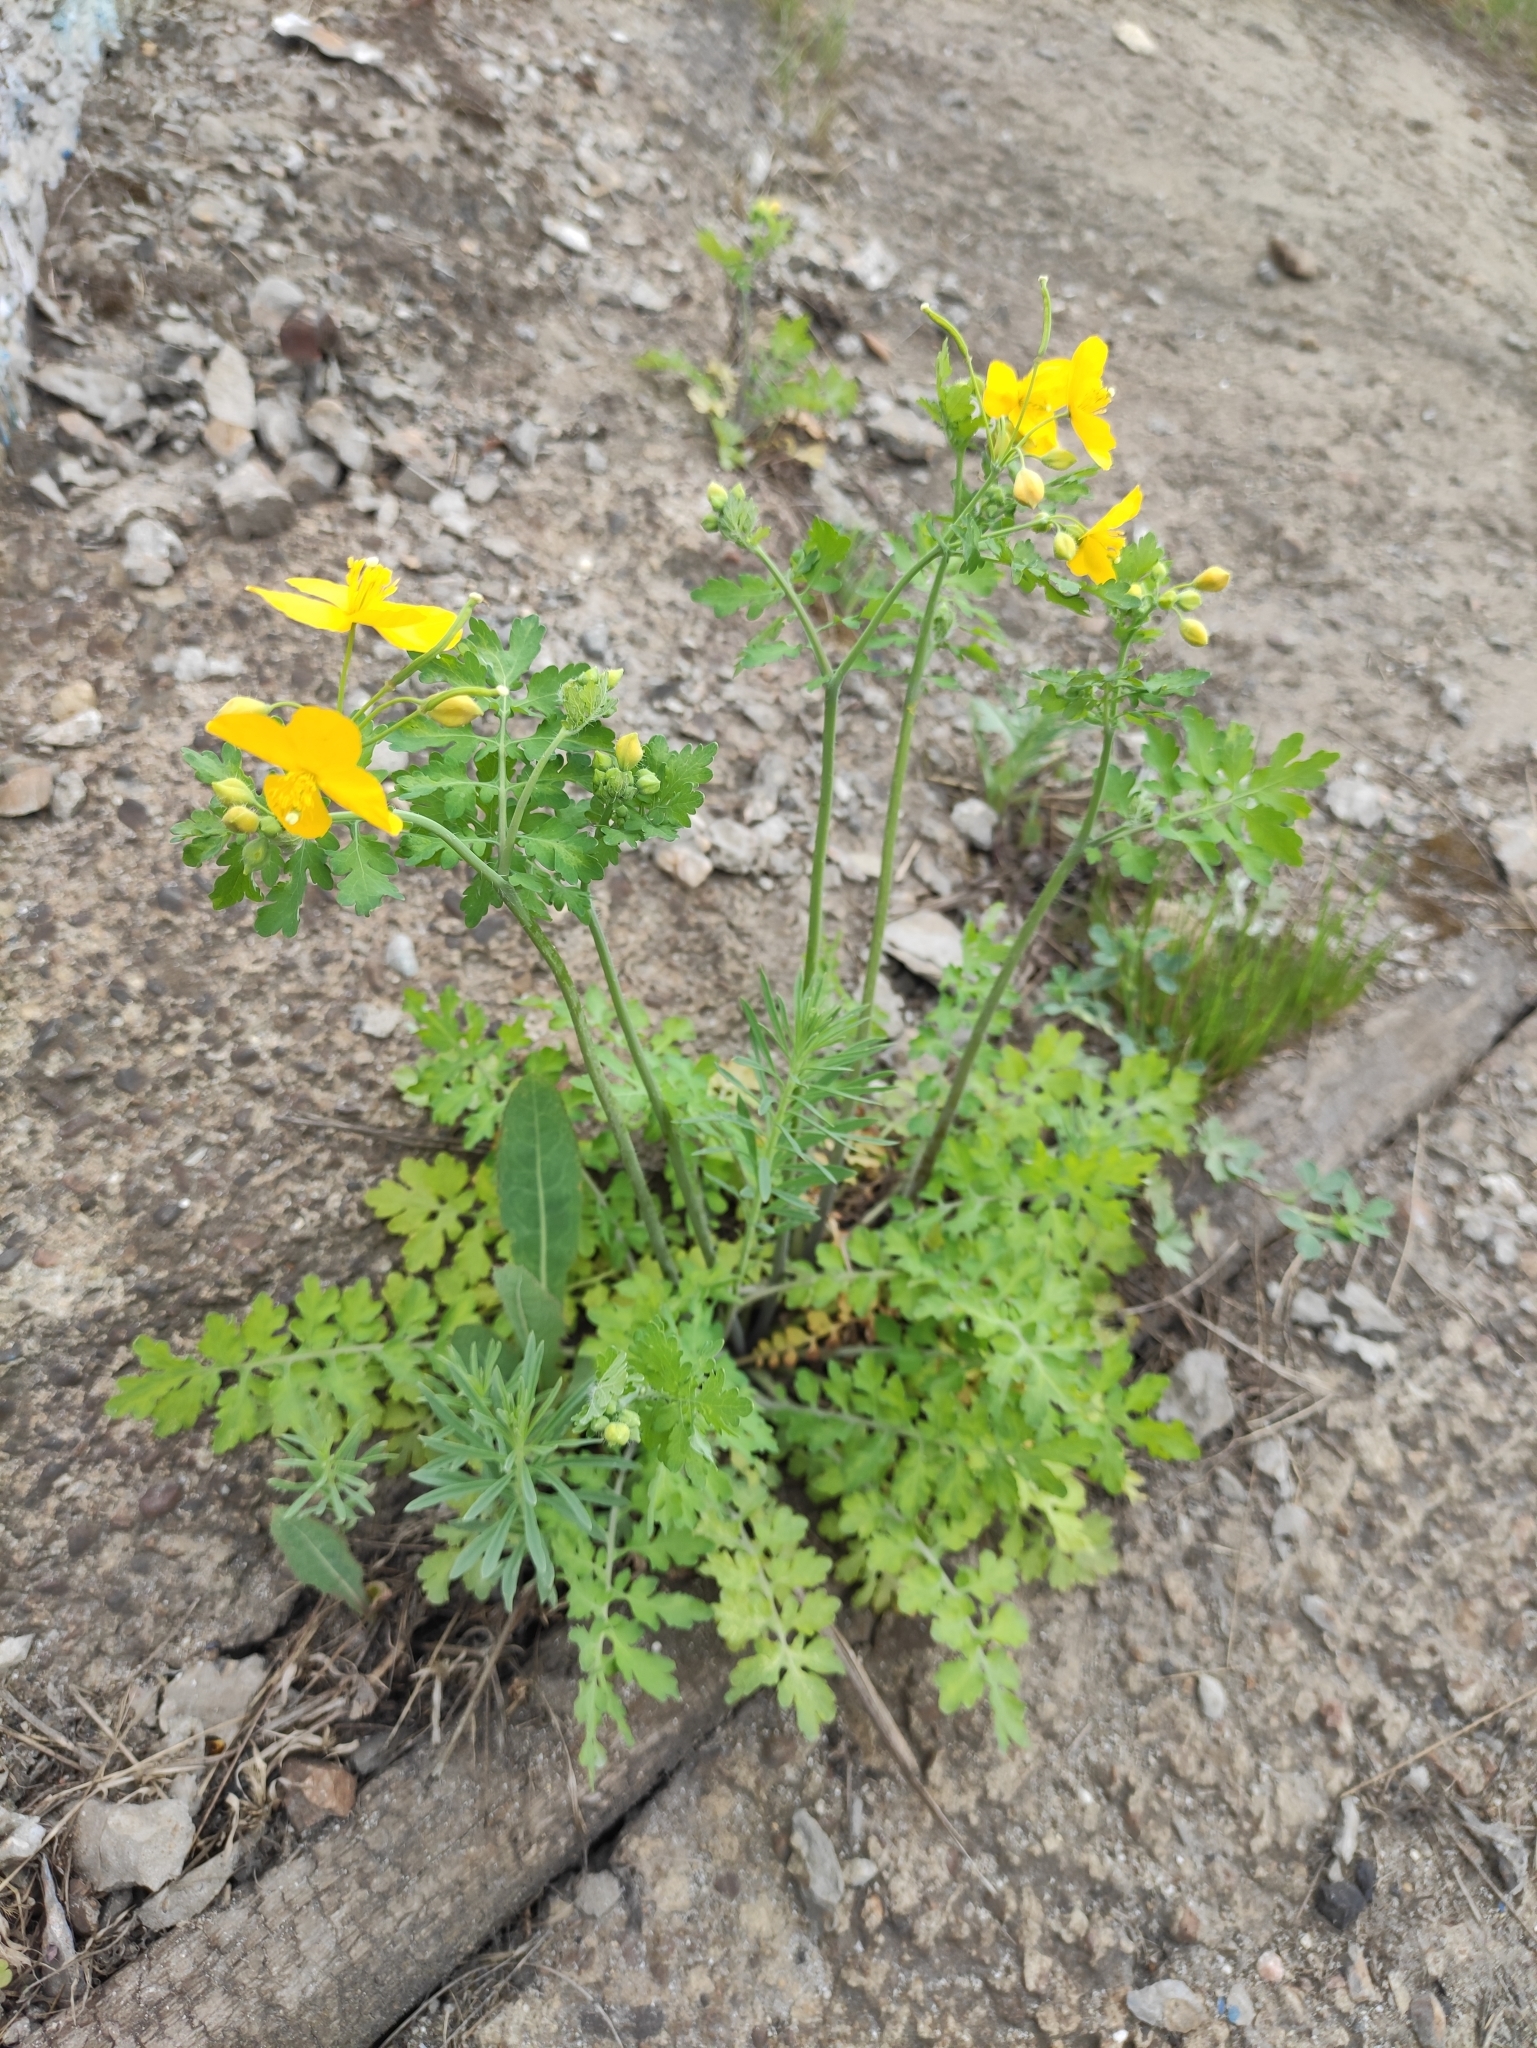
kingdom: Plantae
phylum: Tracheophyta
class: Magnoliopsida
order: Ranunculales
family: Papaveraceae
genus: Chelidonium
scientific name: Chelidonium majus
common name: Greater celandine
